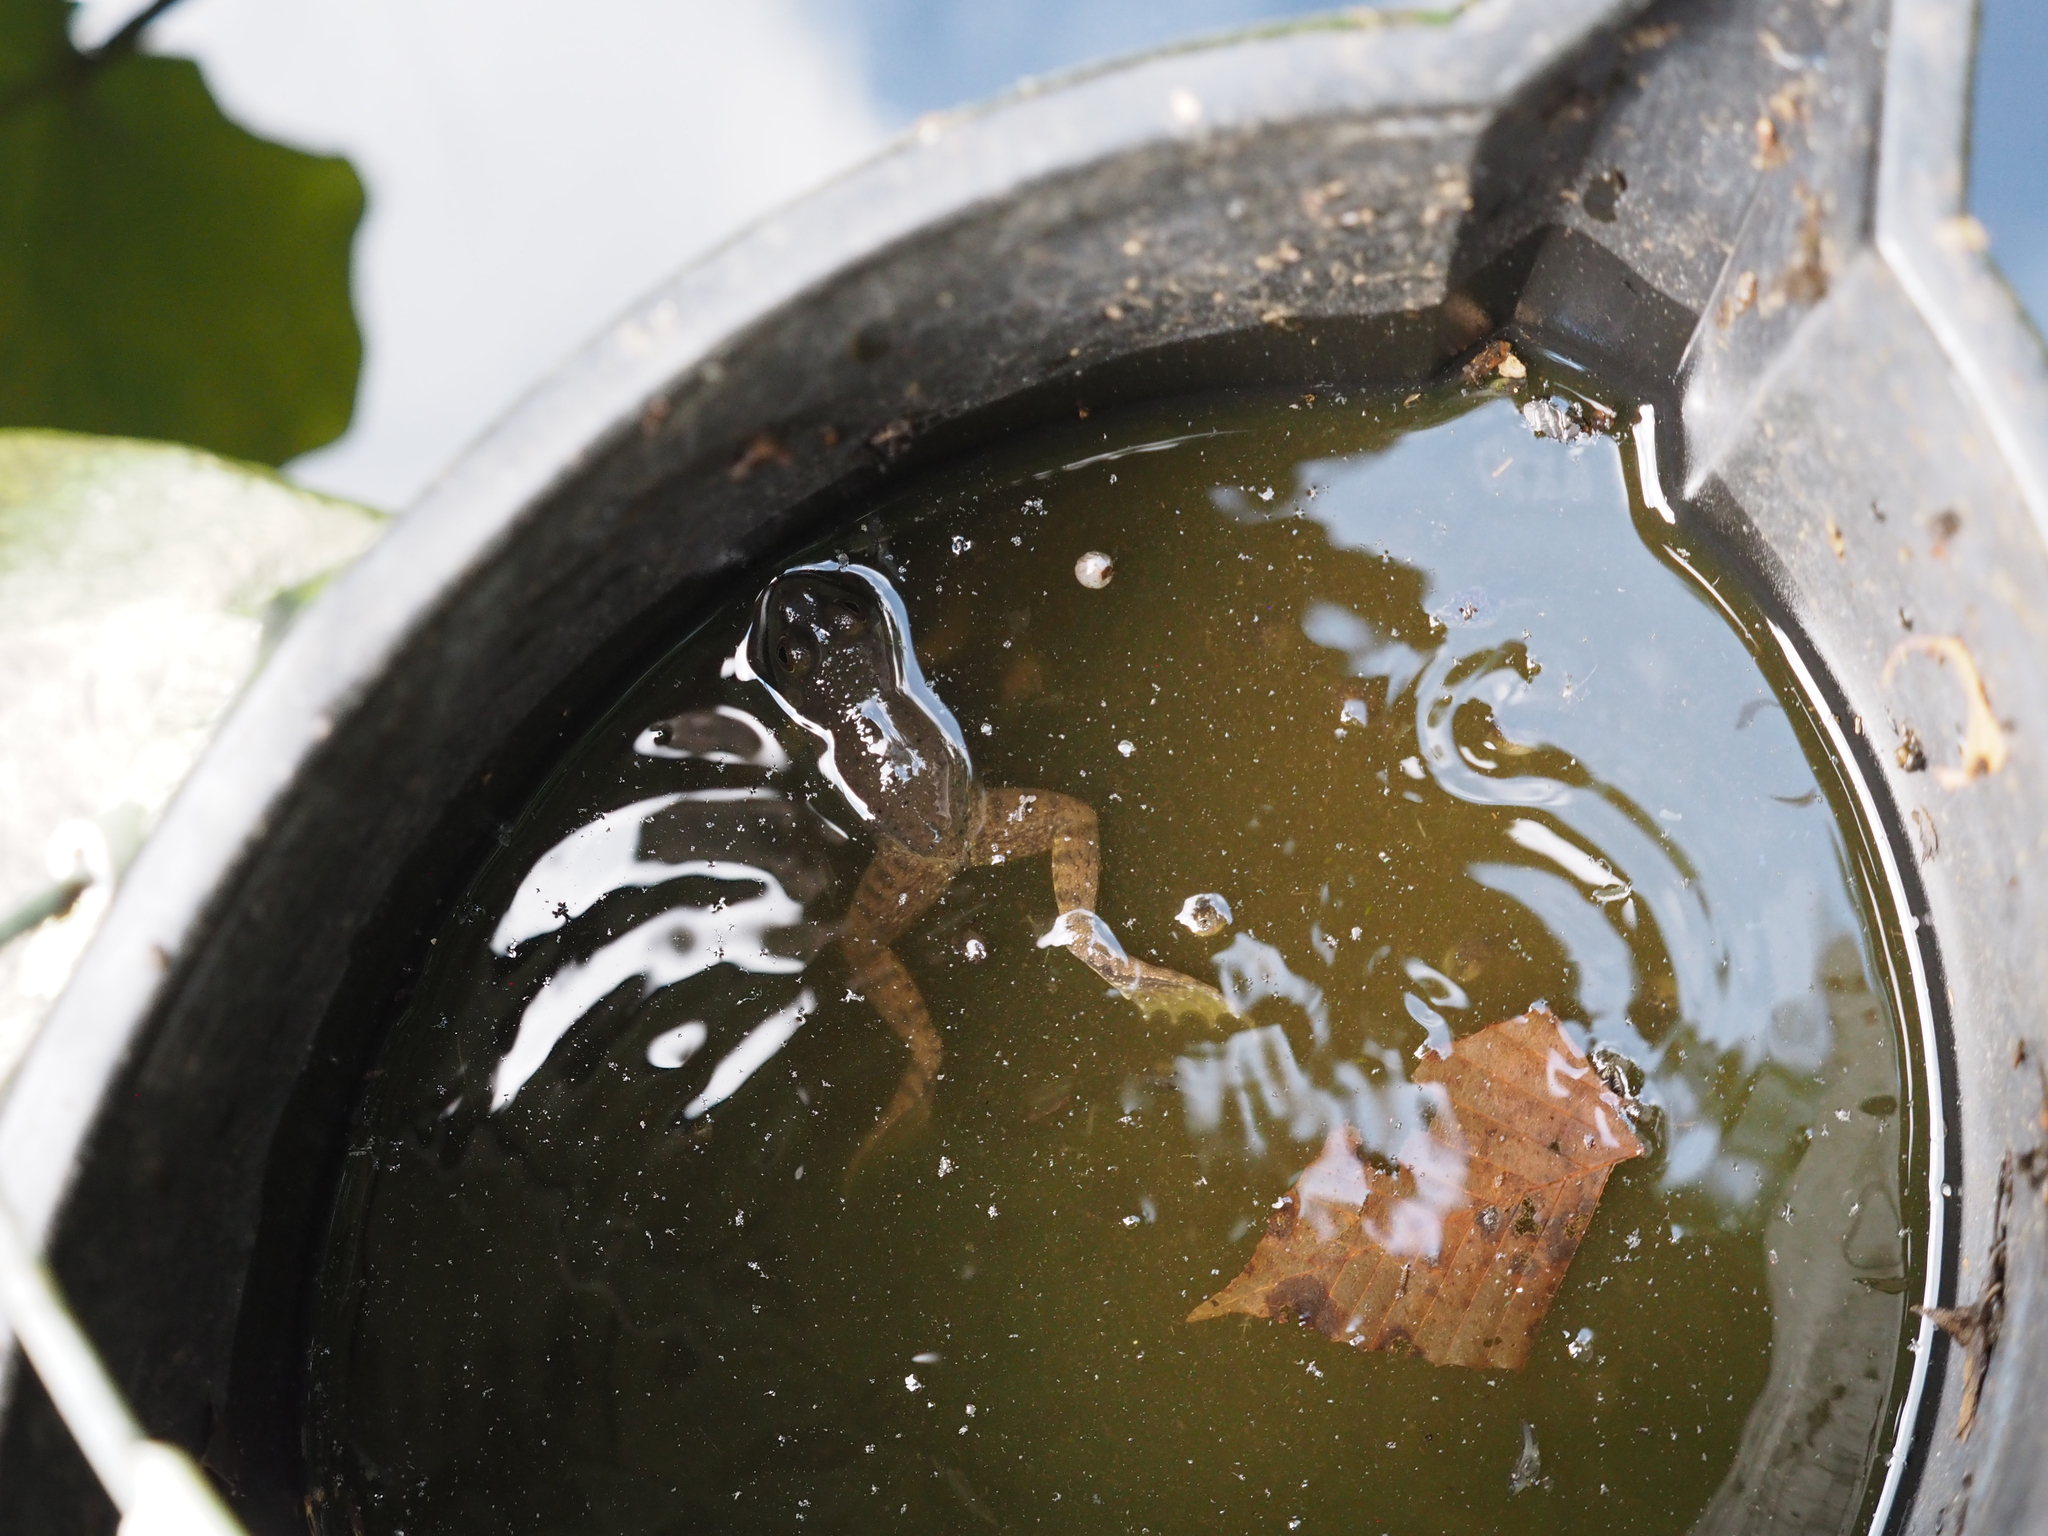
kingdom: Animalia
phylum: Chordata
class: Amphibia
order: Anura
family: Ranidae
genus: Lithobates
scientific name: Lithobates catesbeianus
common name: American bullfrog
